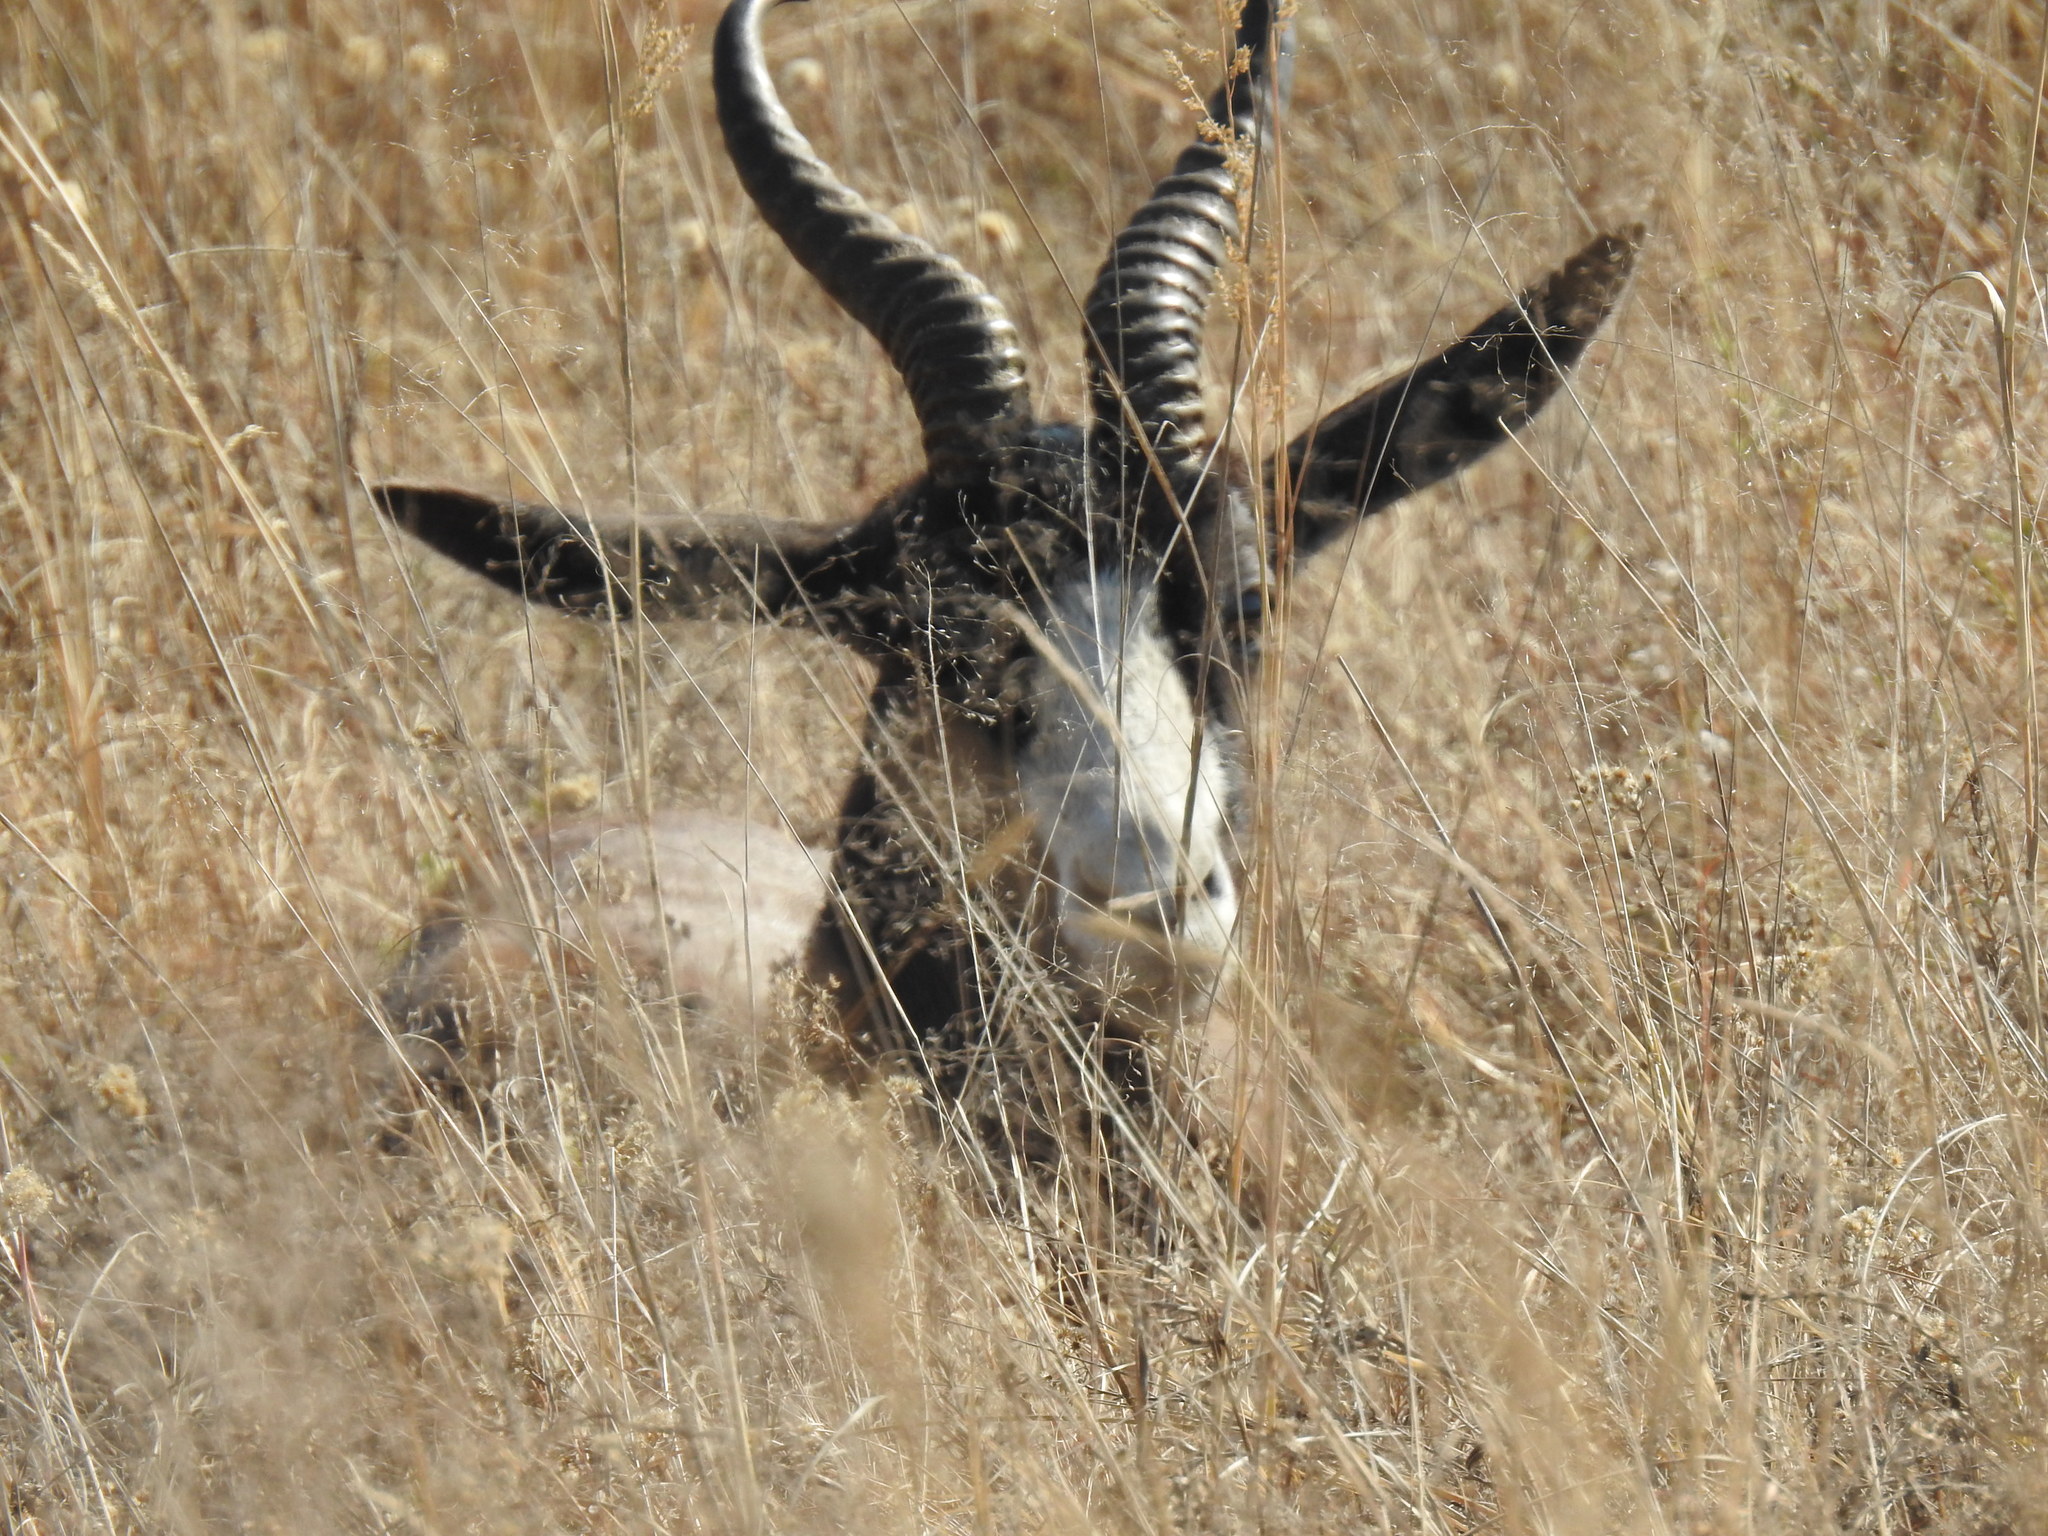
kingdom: Animalia
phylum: Chordata
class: Mammalia
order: Artiodactyla
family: Bovidae
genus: Antidorcas
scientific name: Antidorcas marsupialis
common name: Springbok
